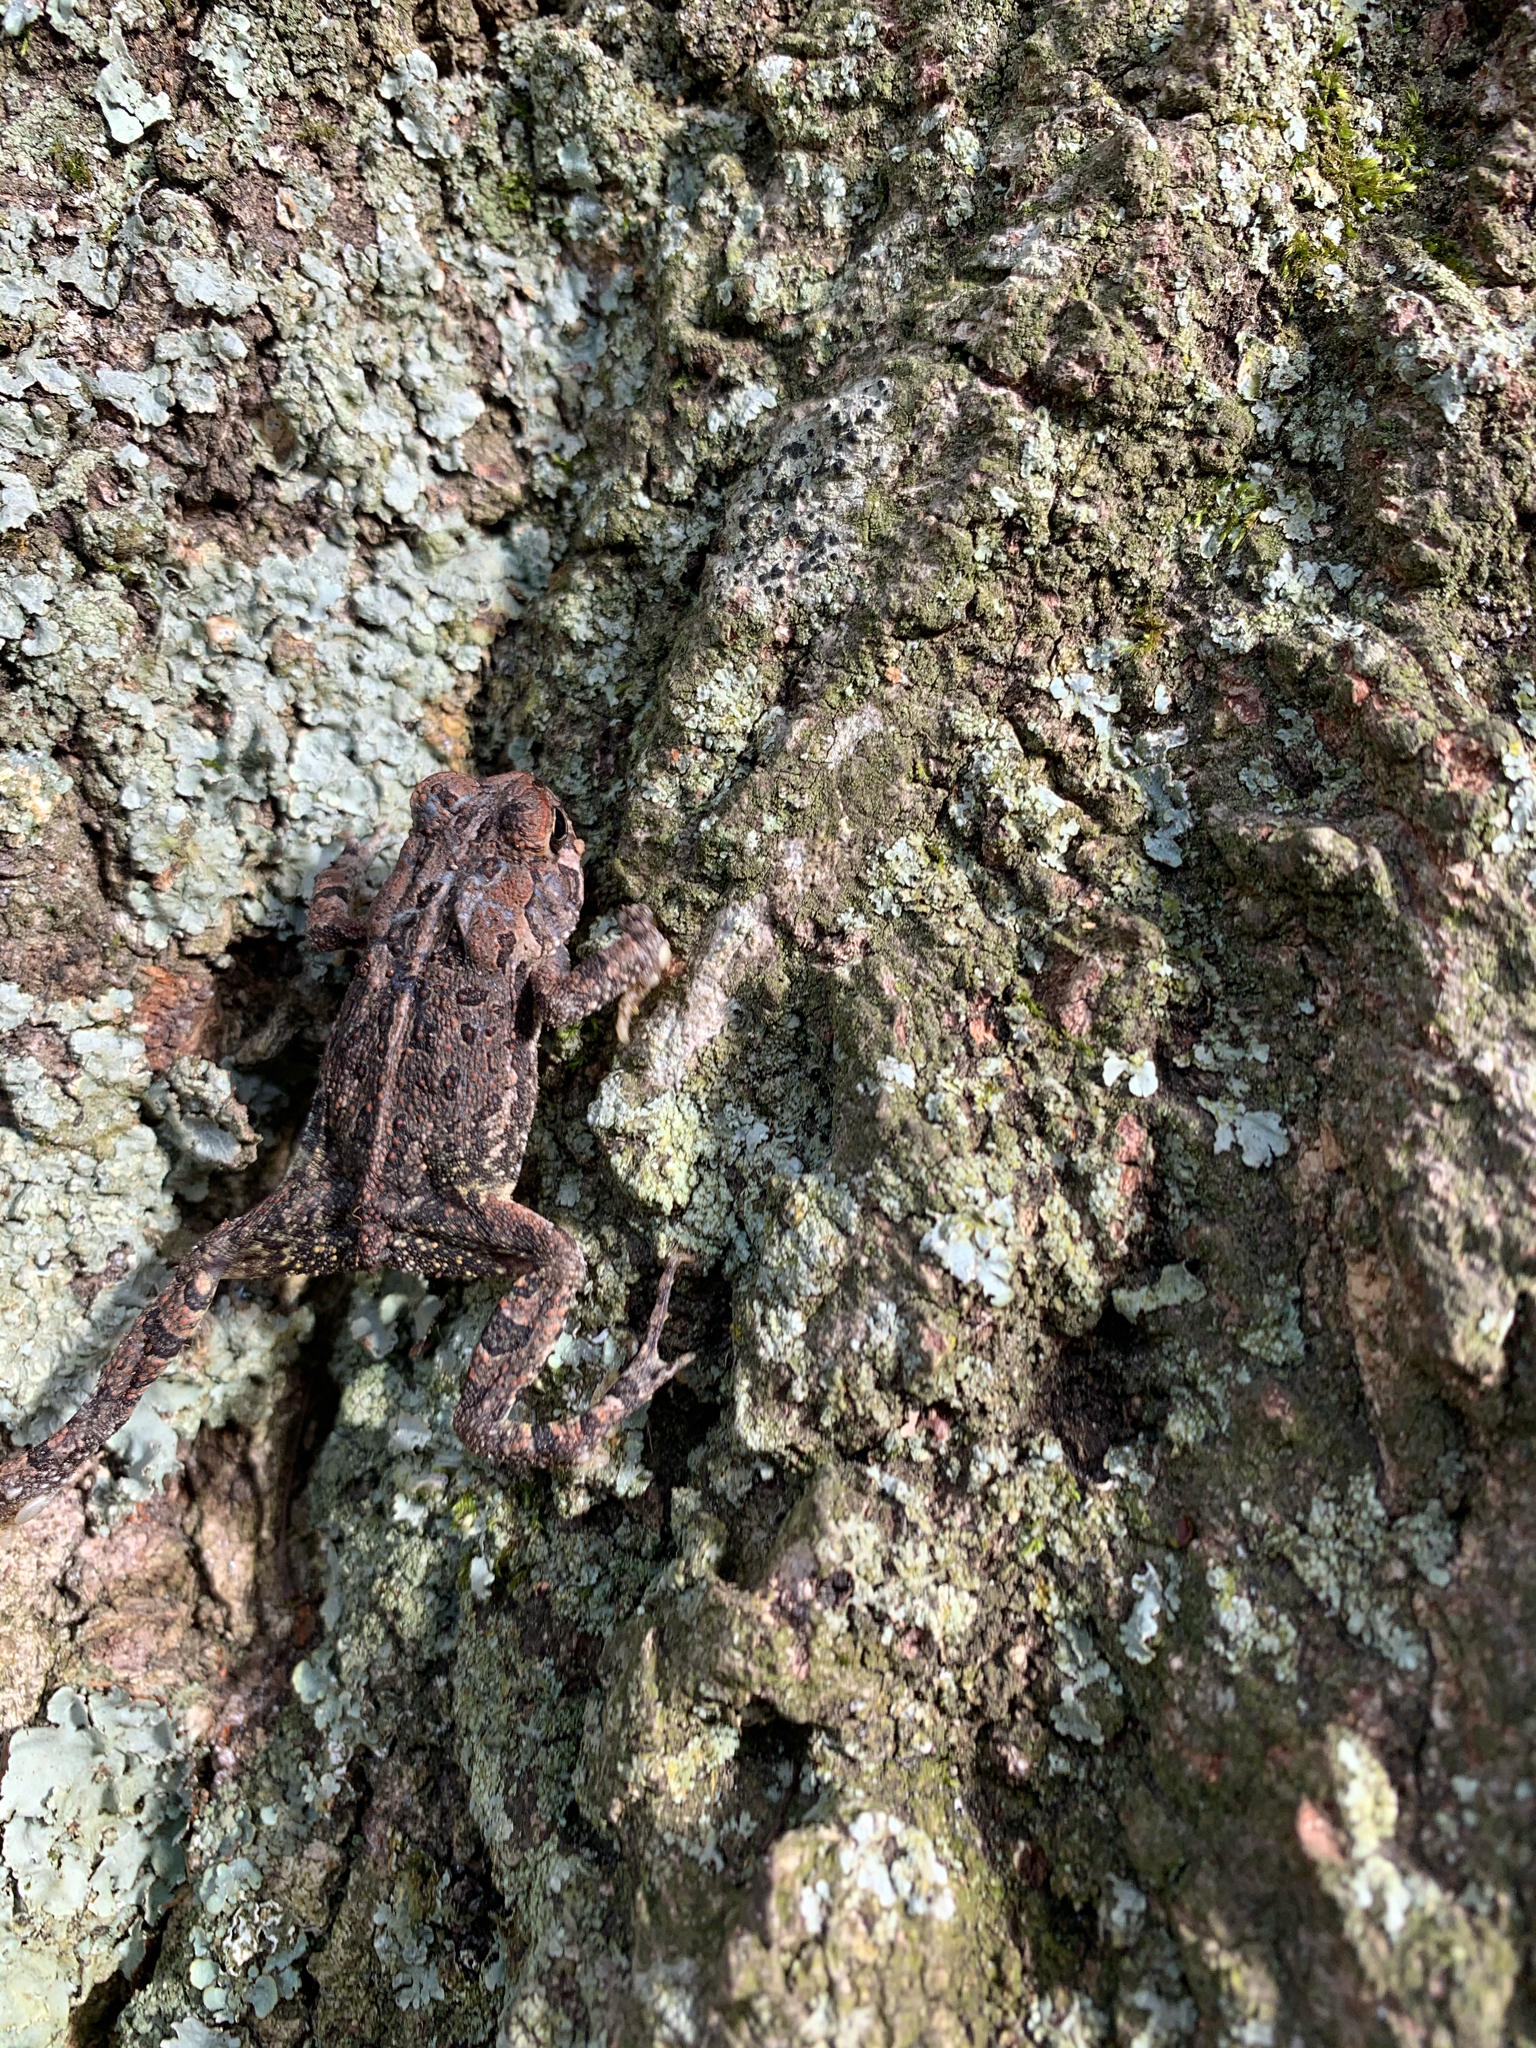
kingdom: Animalia
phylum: Chordata
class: Amphibia
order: Anura
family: Bufonidae
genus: Anaxyrus
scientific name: Anaxyrus fowleri
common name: Fowler's toad
